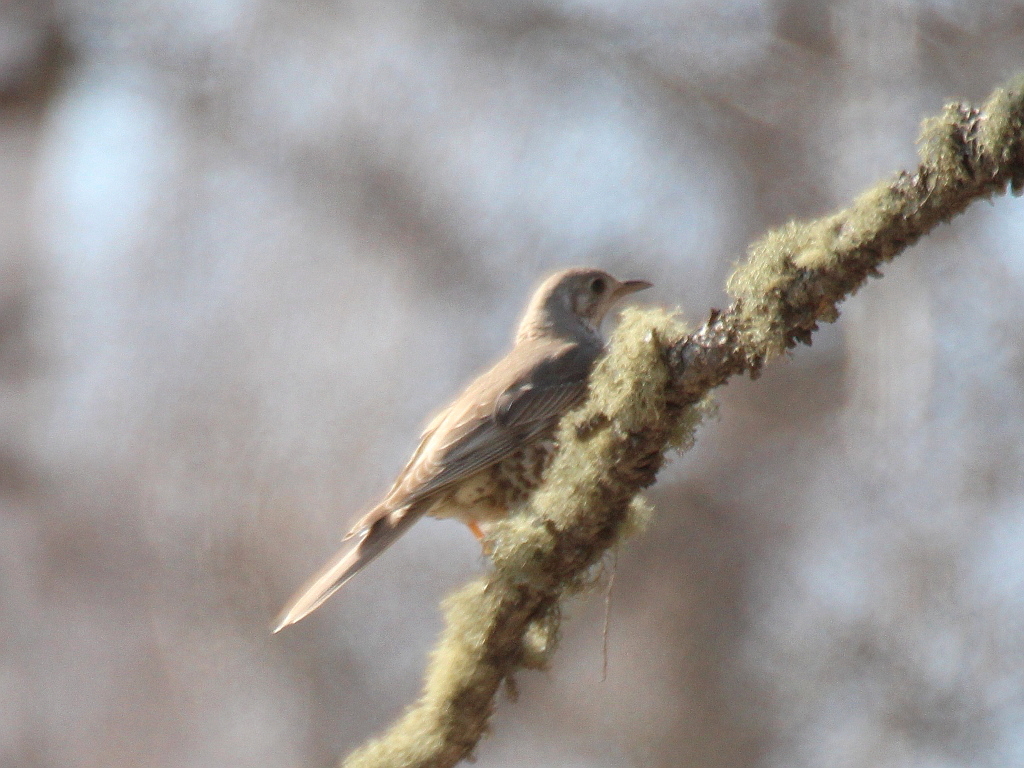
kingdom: Animalia
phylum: Chordata
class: Aves
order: Passeriformes
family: Turdidae
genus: Turdus
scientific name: Turdus viscivorus
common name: Mistle thrush
